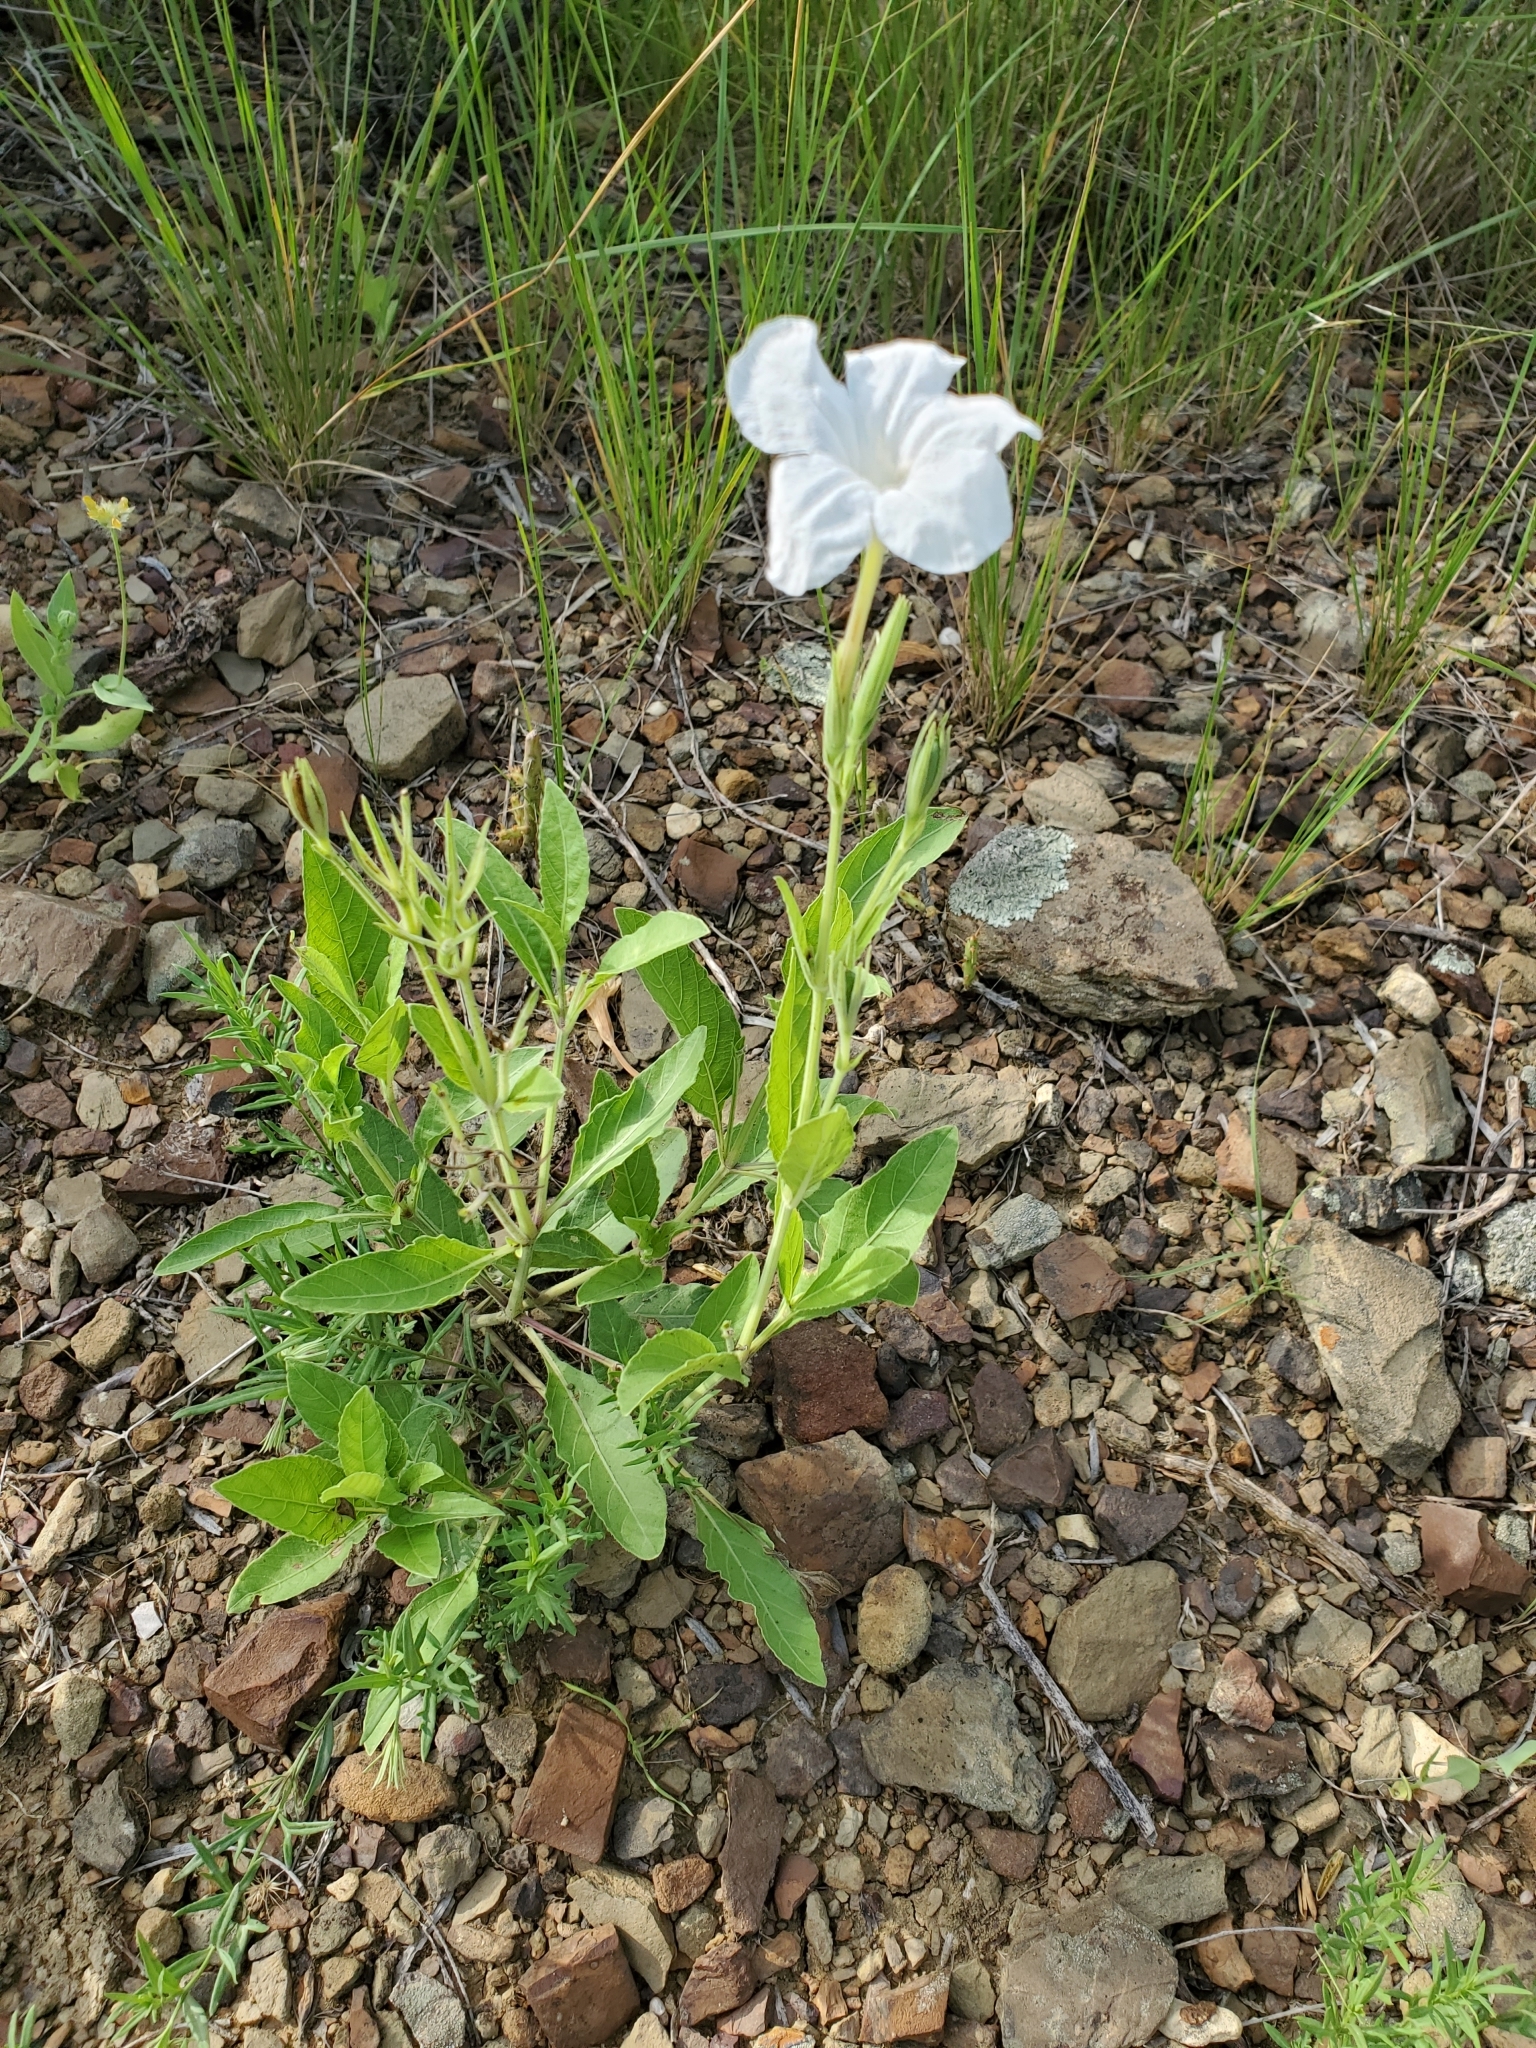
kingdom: Plantae
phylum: Tracheophyta
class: Magnoliopsida
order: Lamiales
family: Acanthaceae
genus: Ruellia
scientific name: Ruellia metziae
